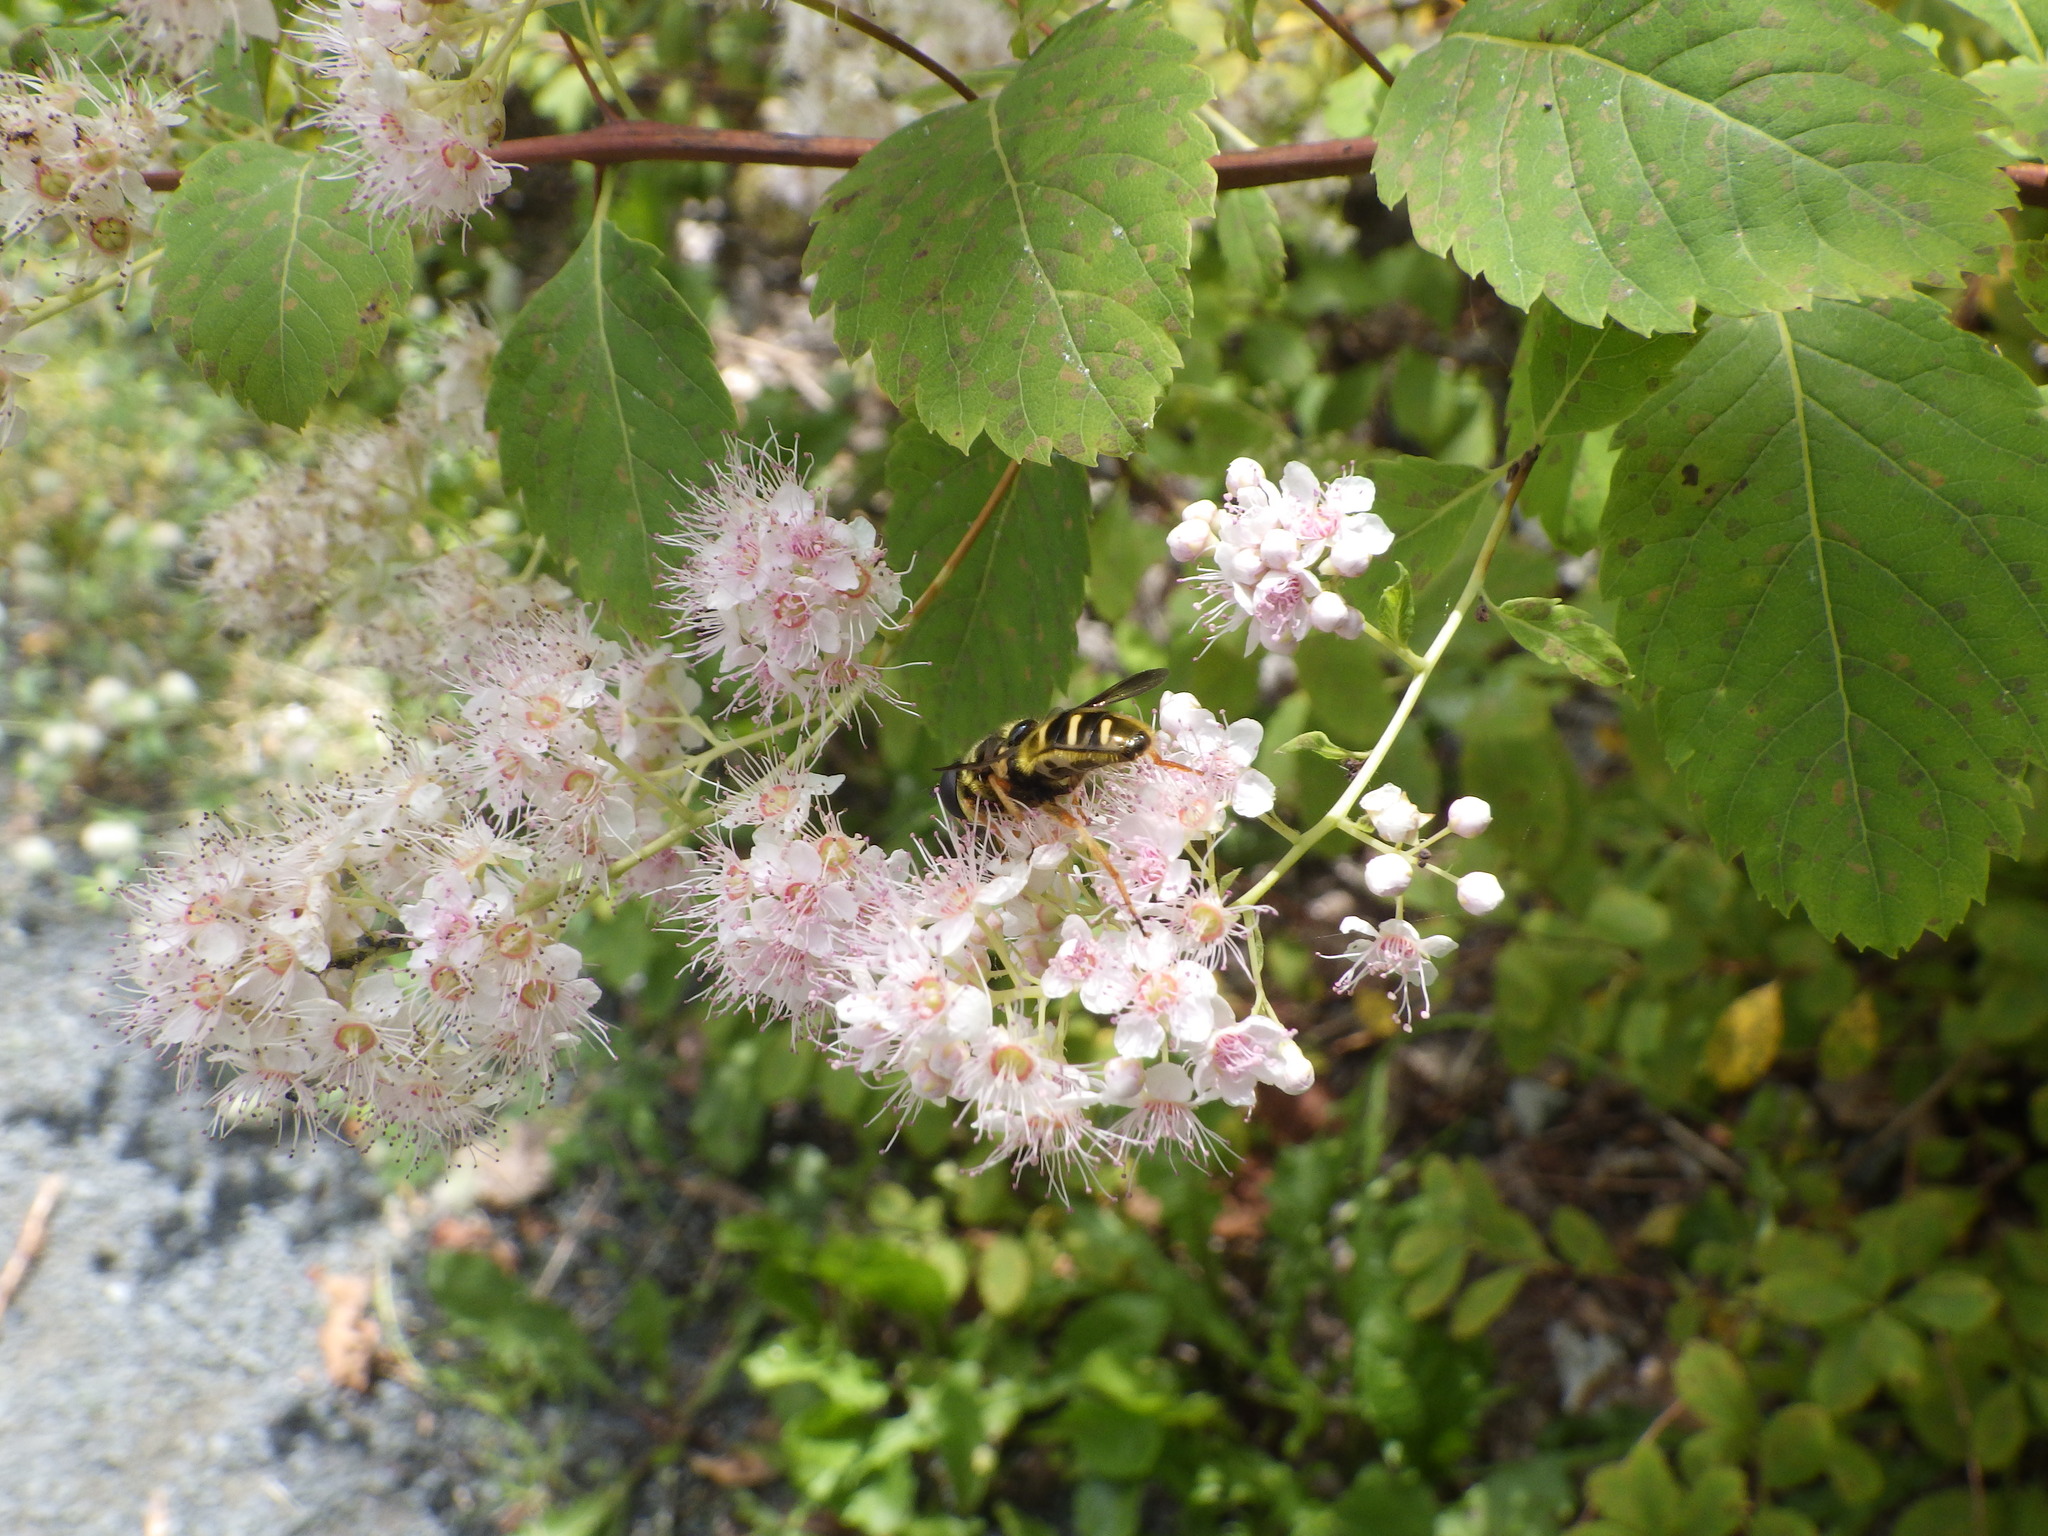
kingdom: Animalia
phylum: Arthropoda
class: Insecta
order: Diptera
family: Syrphidae
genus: Sericomyia
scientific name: Sericomyia chrysotoxoides
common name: Oblique-banded pond fly
